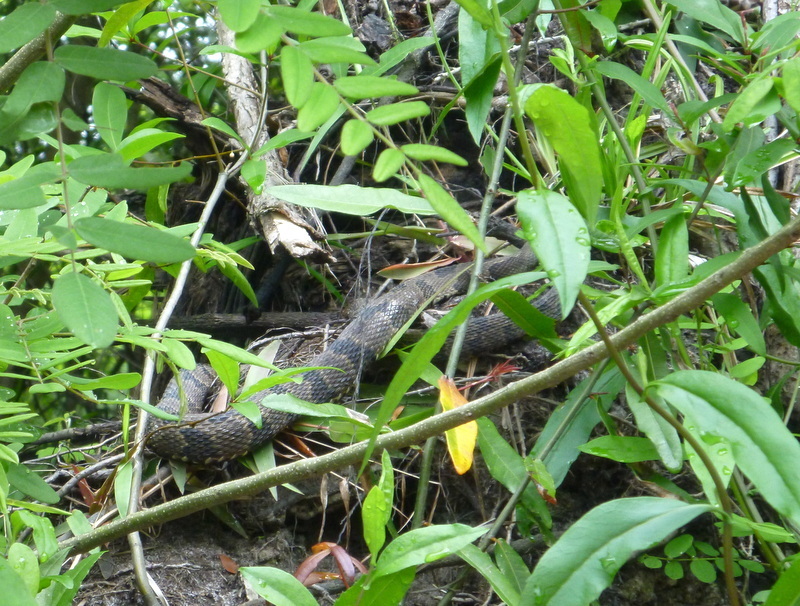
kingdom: Animalia
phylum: Chordata
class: Squamata
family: Colubridae
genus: Nerodia
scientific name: Nerodia taxispilota
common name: Brown water snake
